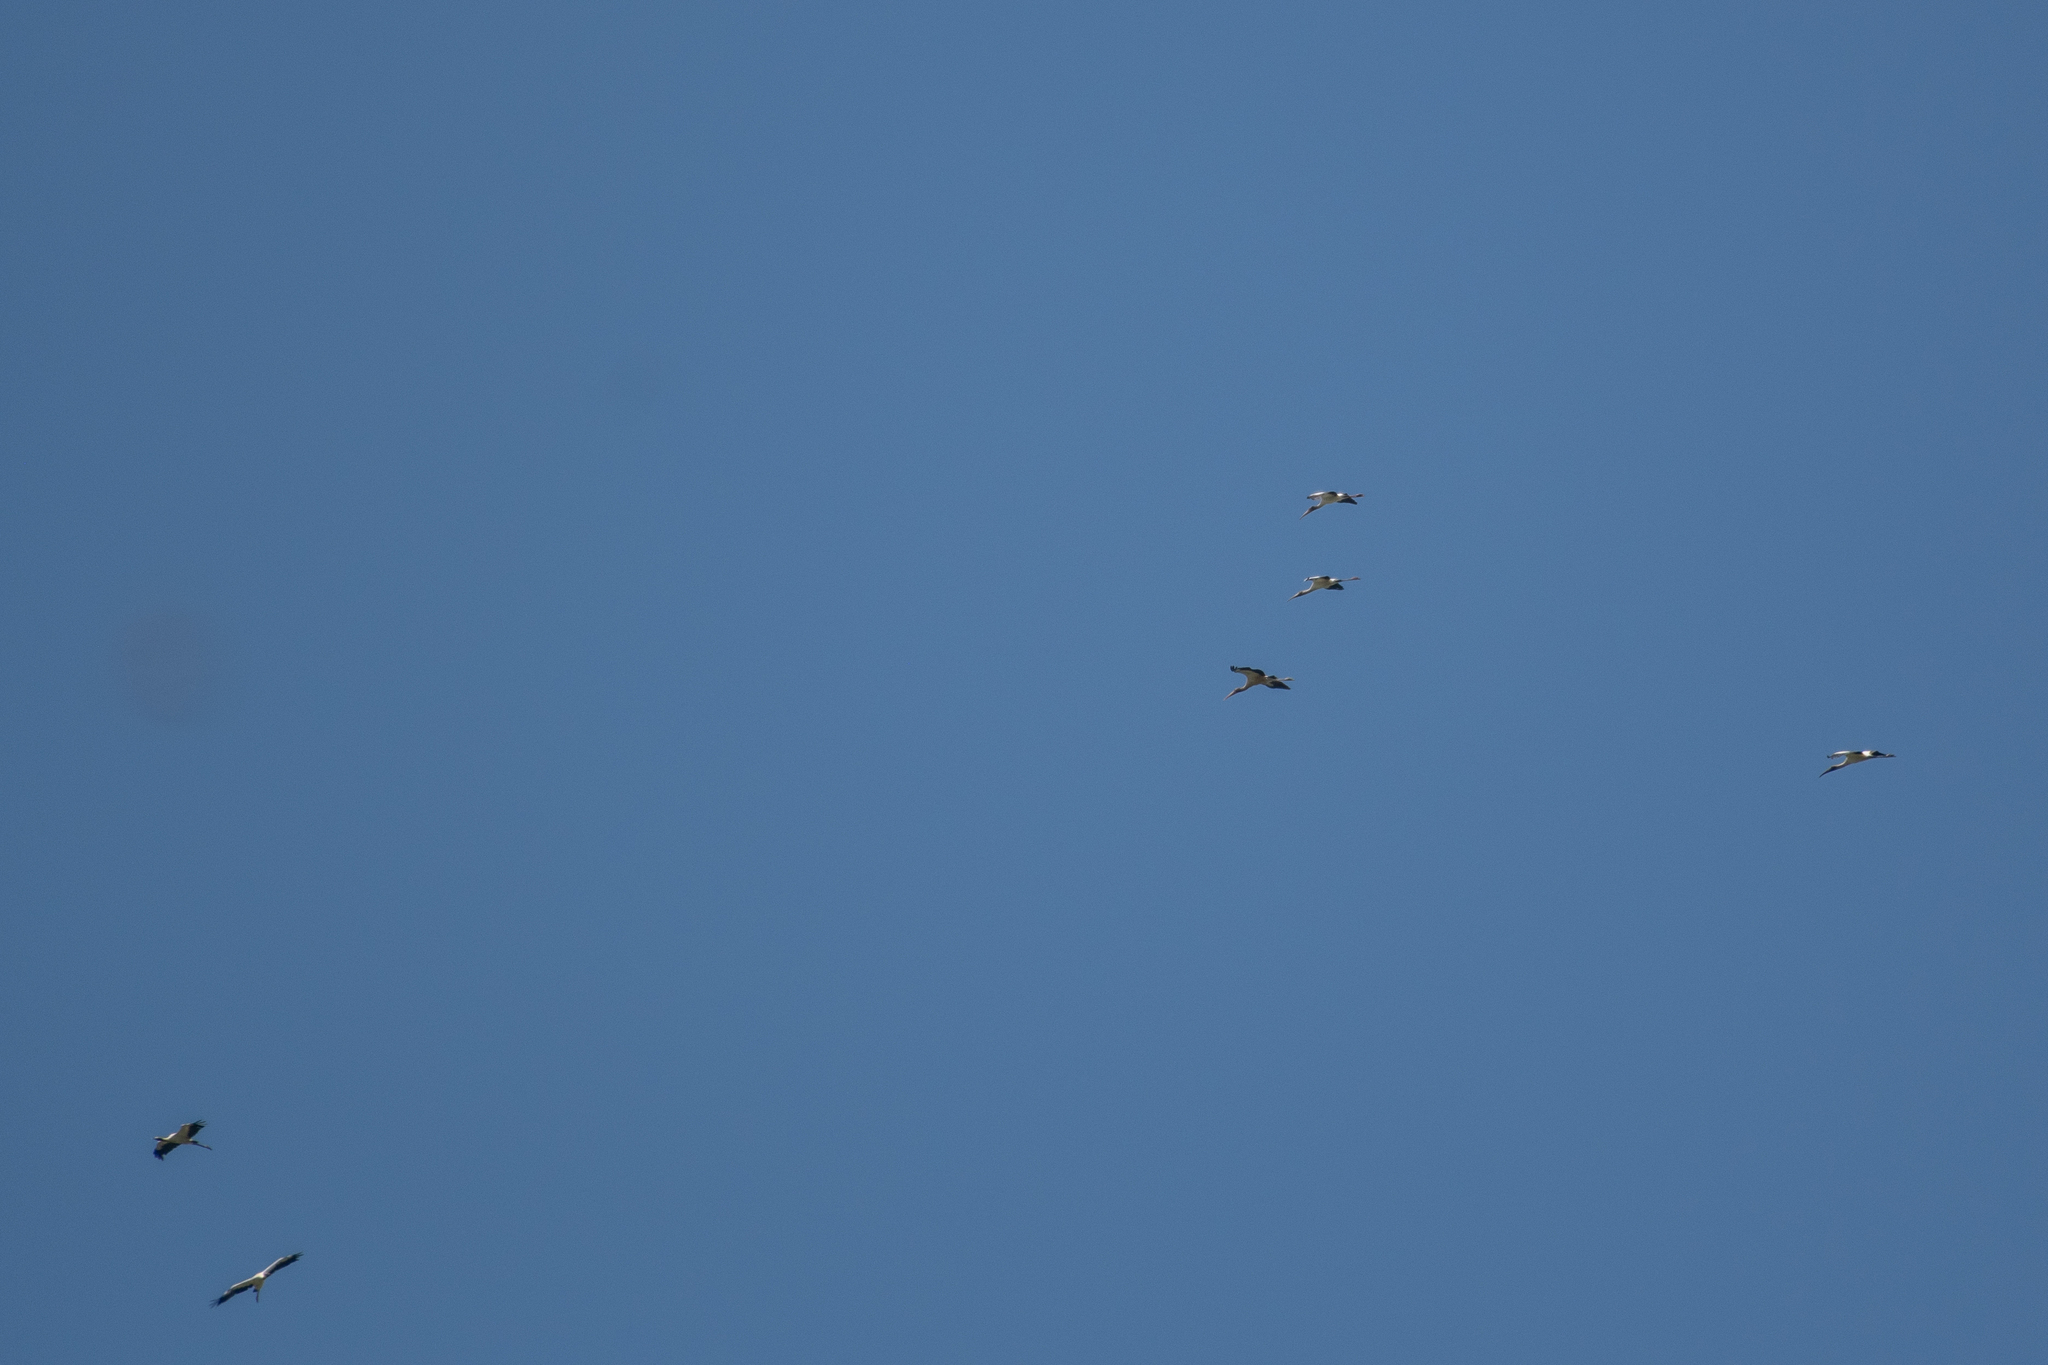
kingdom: Animalia
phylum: Chordata
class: Aves
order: Ciconiiformes
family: Ciconiidae
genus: Mycteria
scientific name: Mycteria americana
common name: Wood stork
